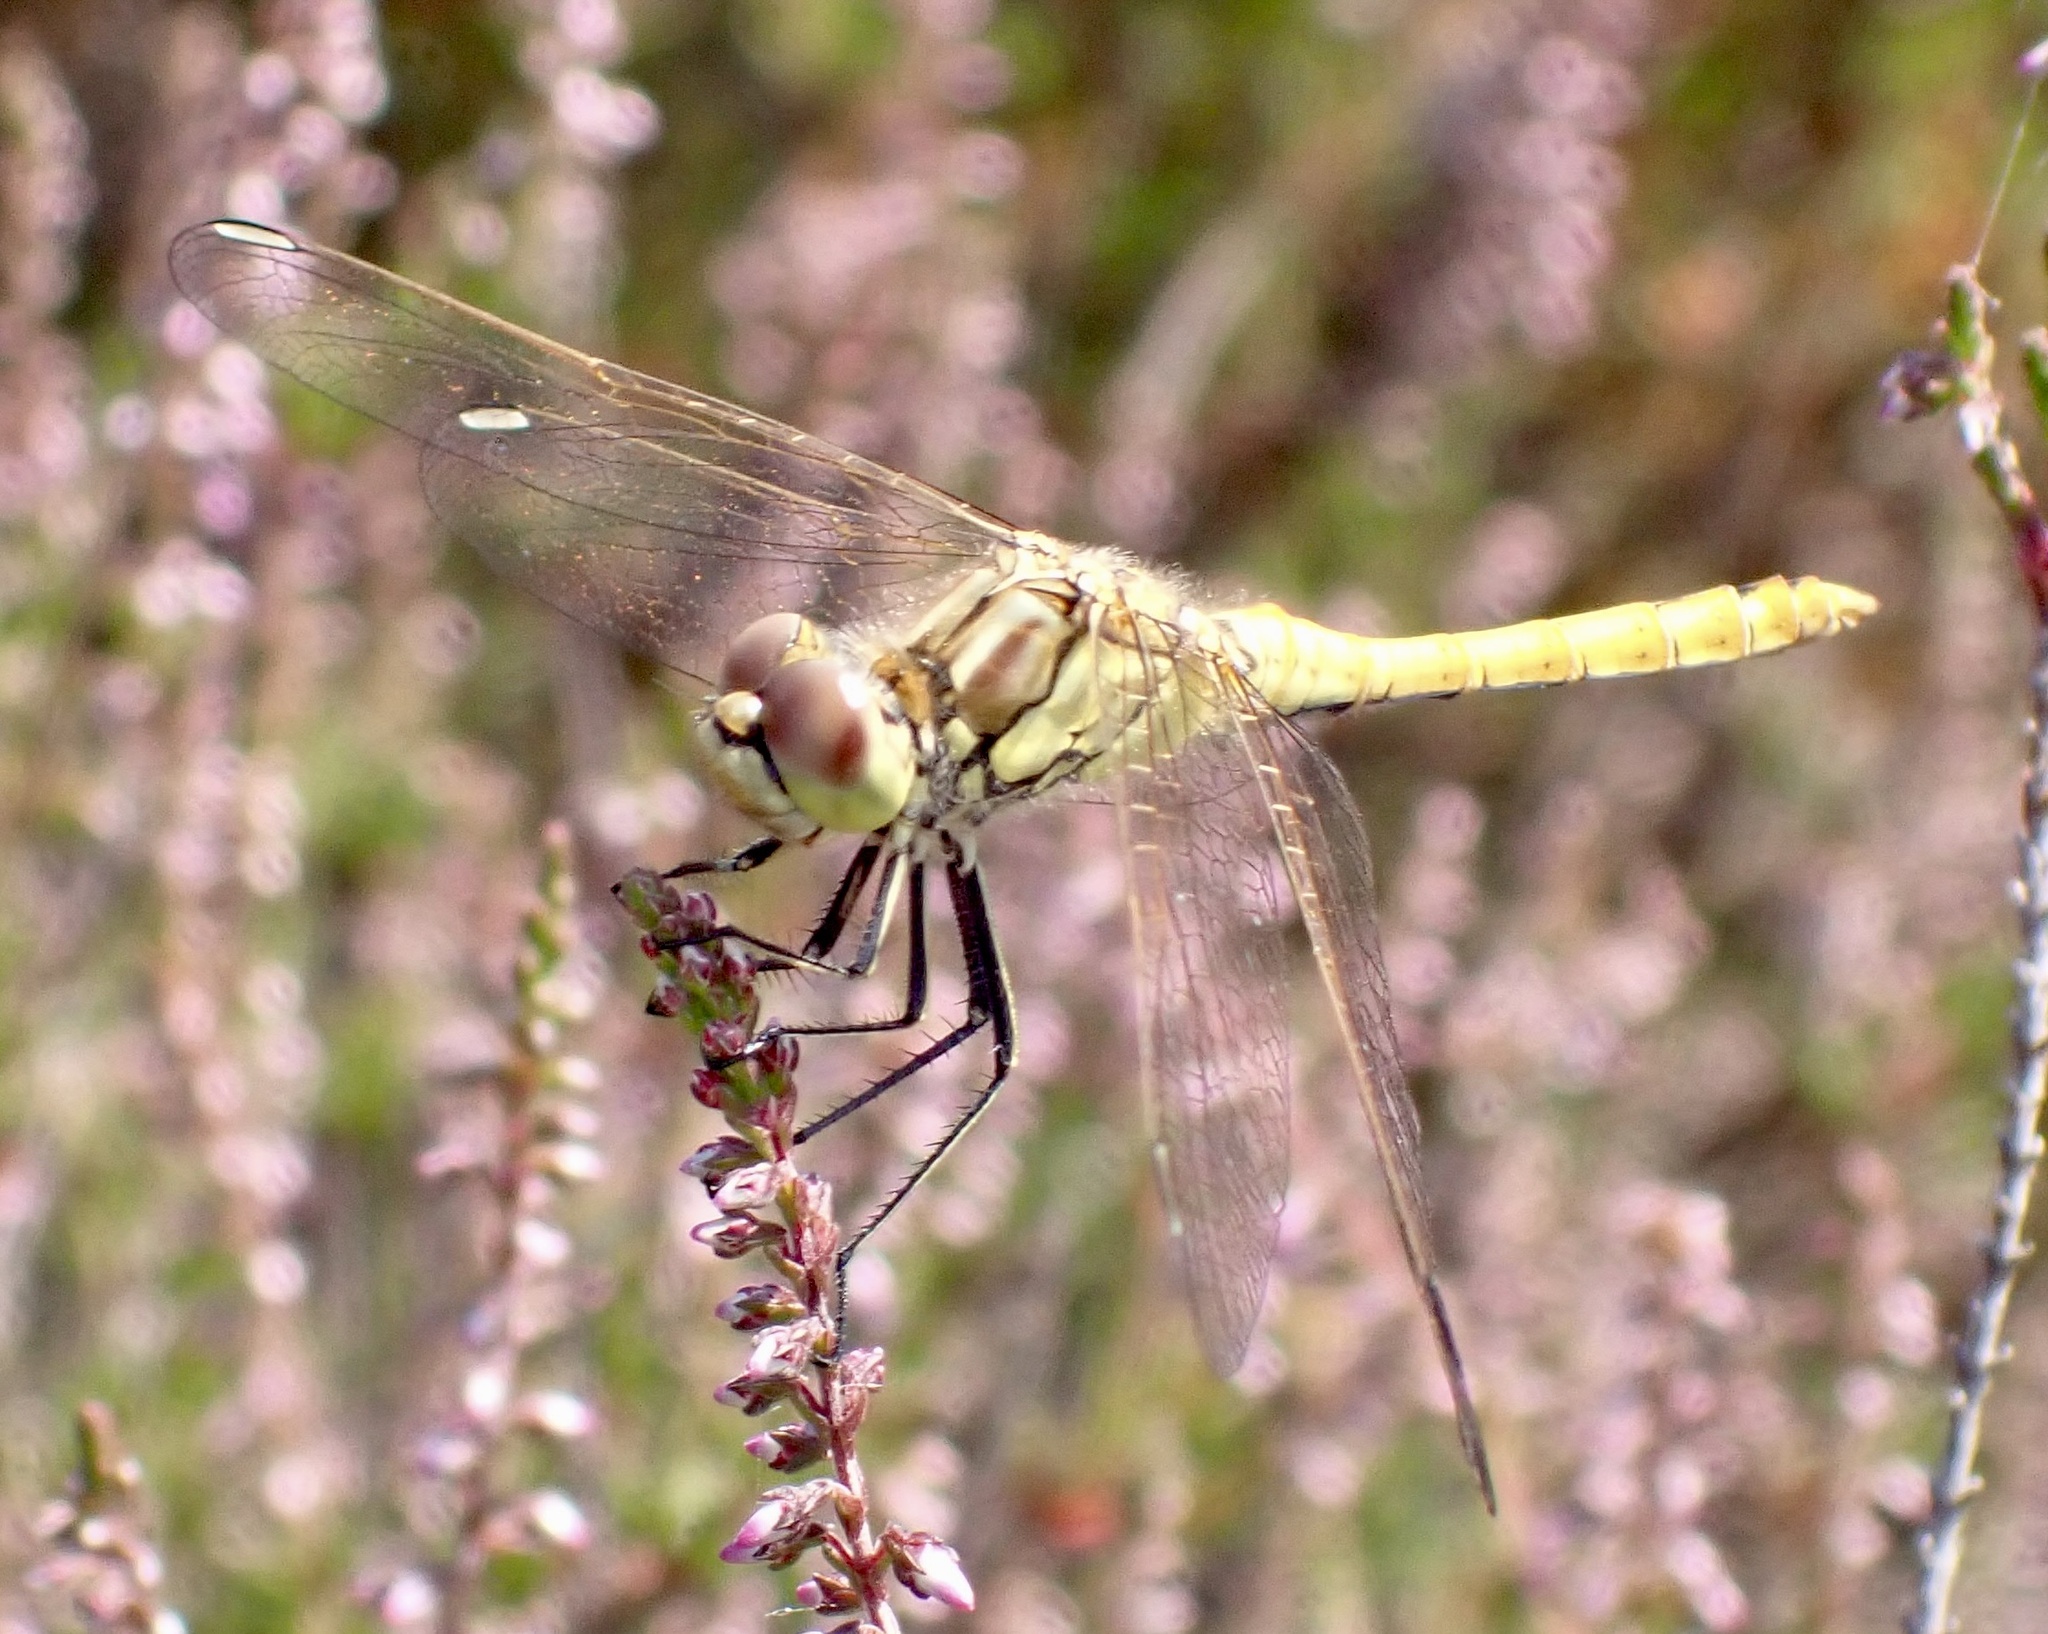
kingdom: Animalia
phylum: Arthropoda
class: Insecta
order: Odonata
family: Libellulidae
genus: Sympetrum
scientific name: Sympetrum vulgatum
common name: Vagrant darter
